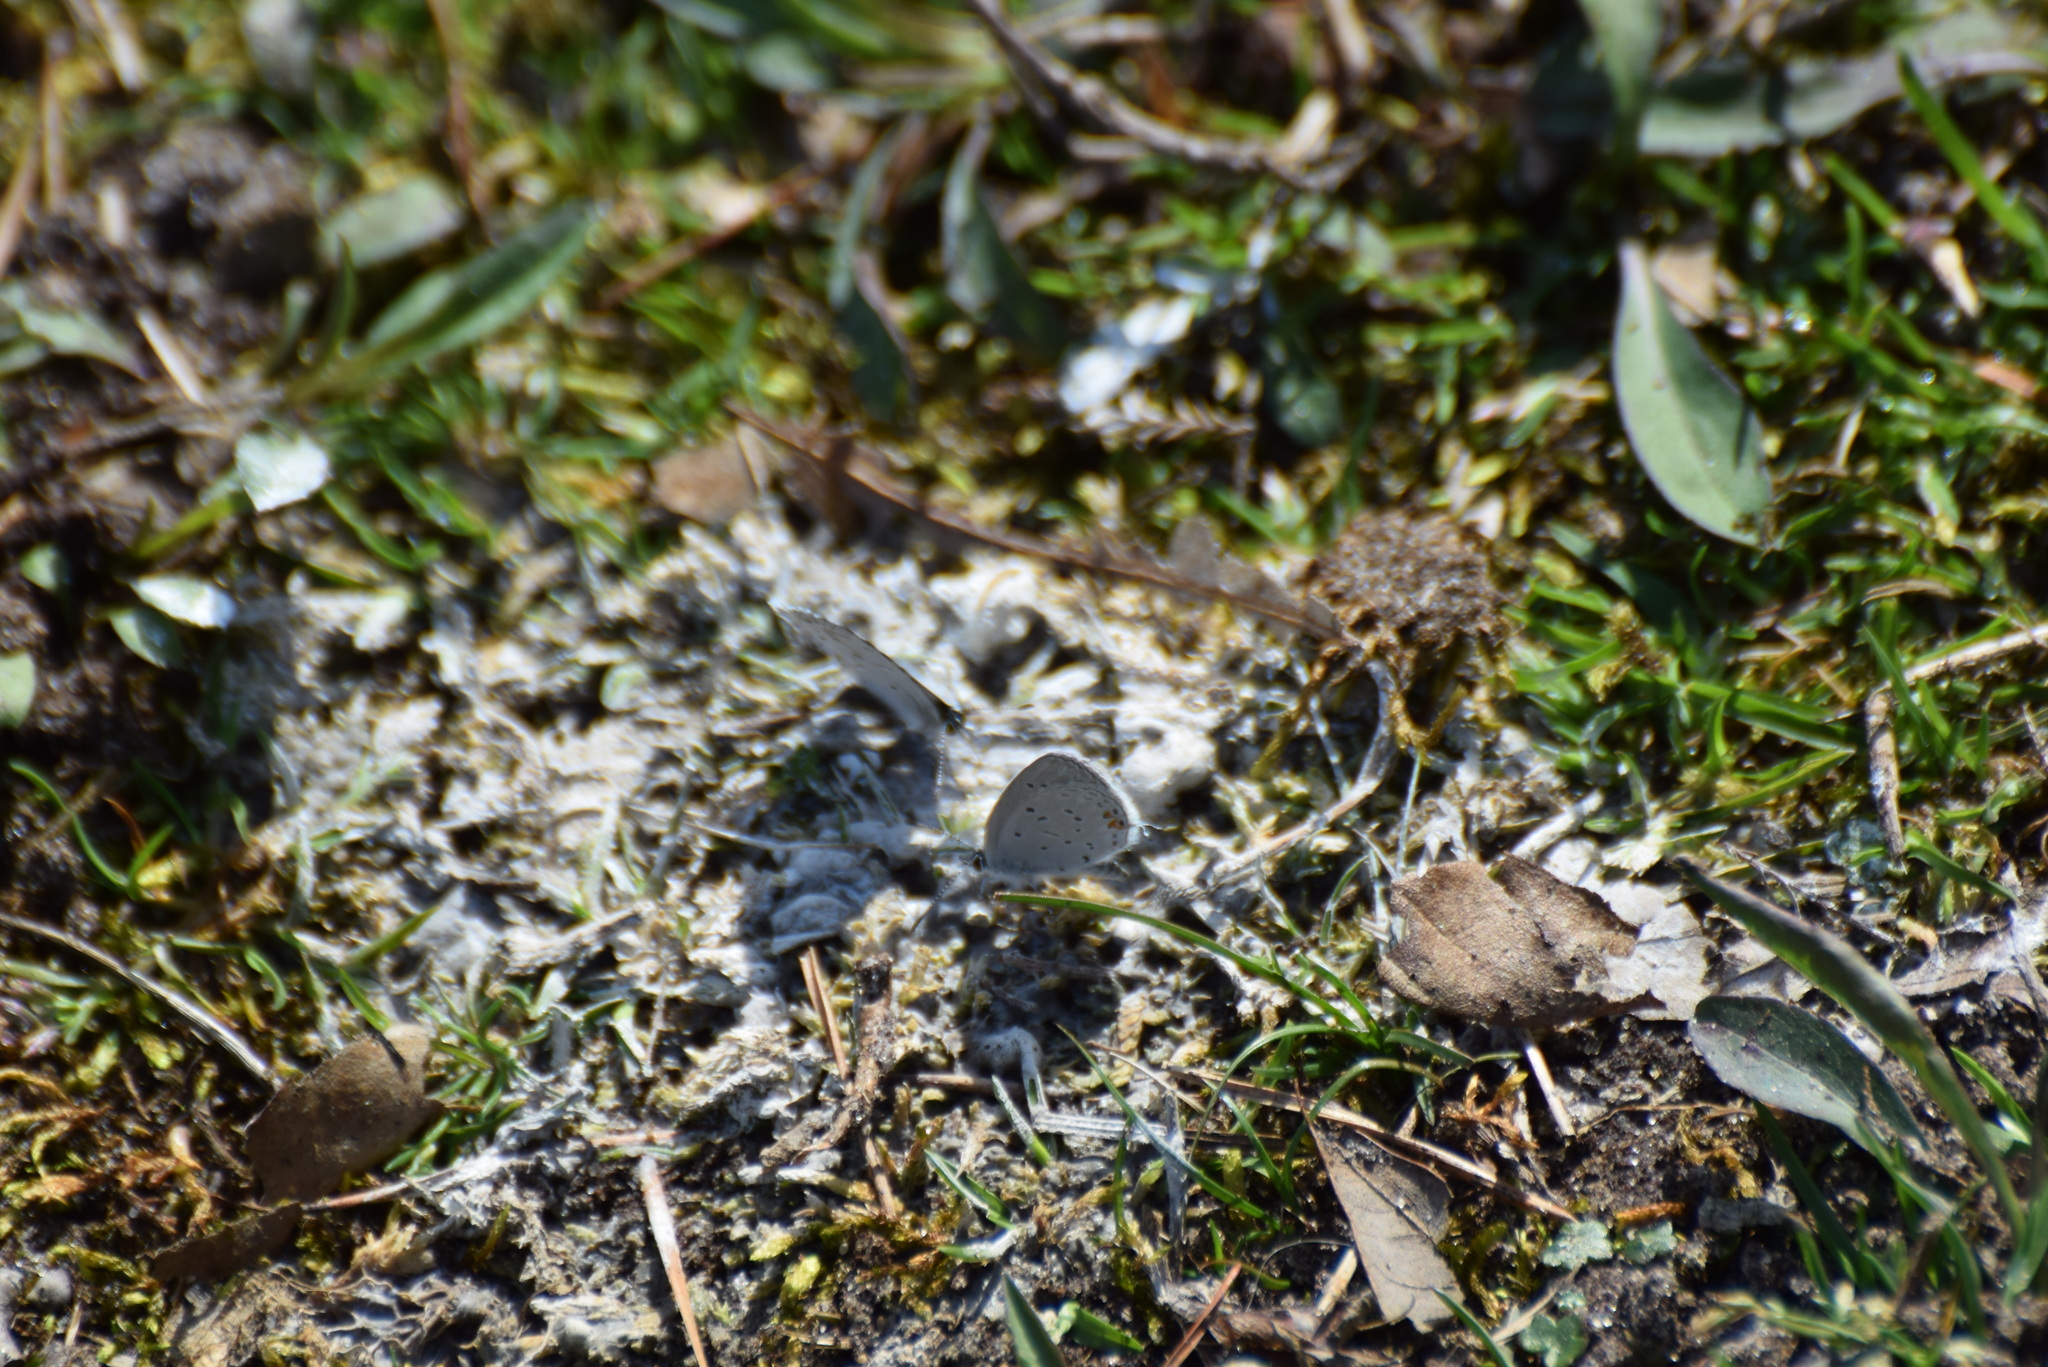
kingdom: Animalia
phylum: Arthropoda
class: Insecta
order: Lepidoptera
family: Lycaenidae
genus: Elkalyce
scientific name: Elkalyce comyntas
